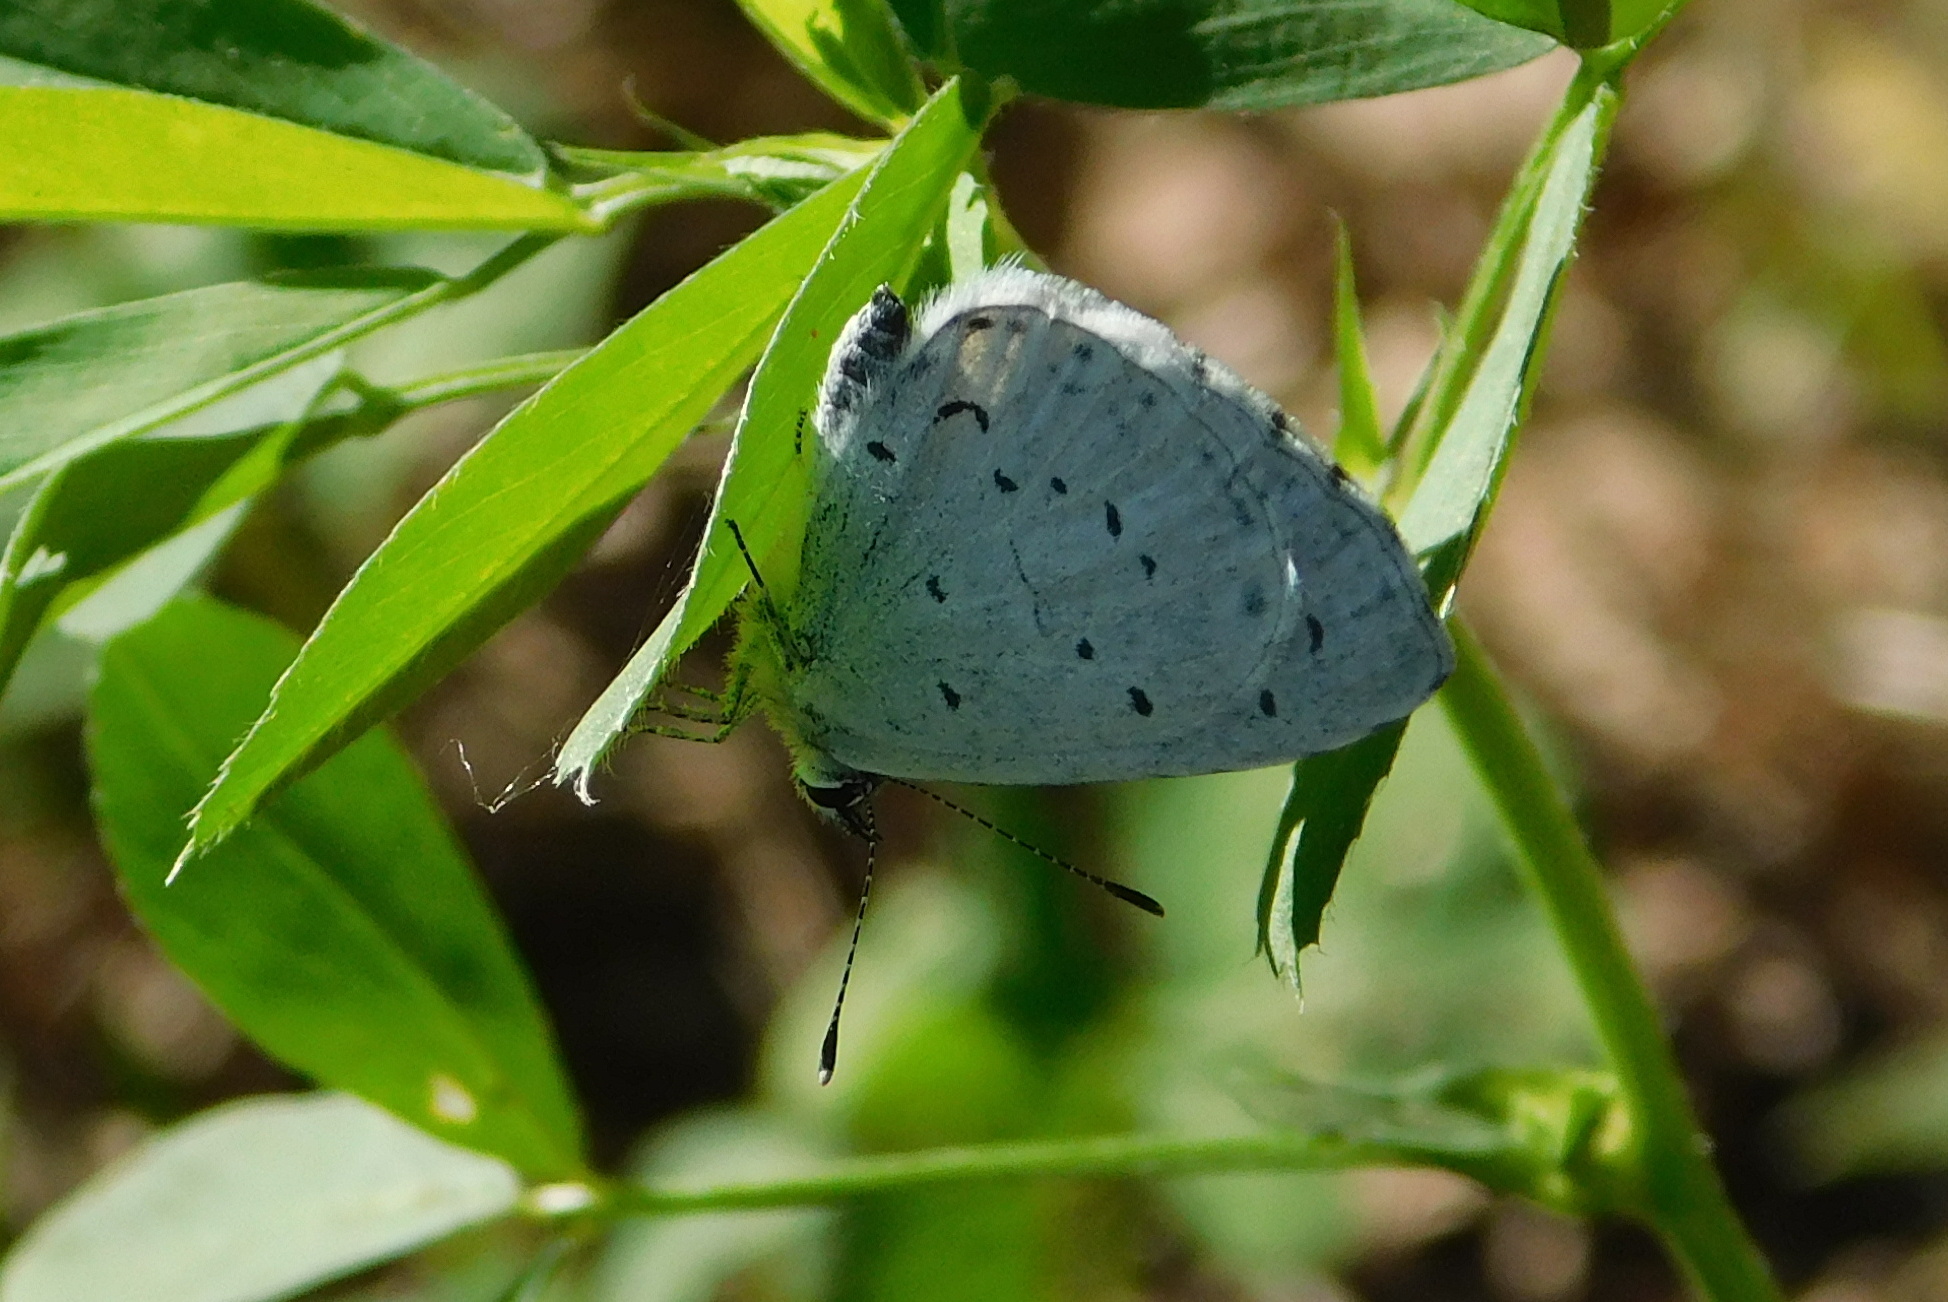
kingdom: Animalia
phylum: Arthropoda
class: Insecta
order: Lepidoptera
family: Lycaenidae
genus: Celastrina
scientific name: Celastrina argiolus
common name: Holly blue
